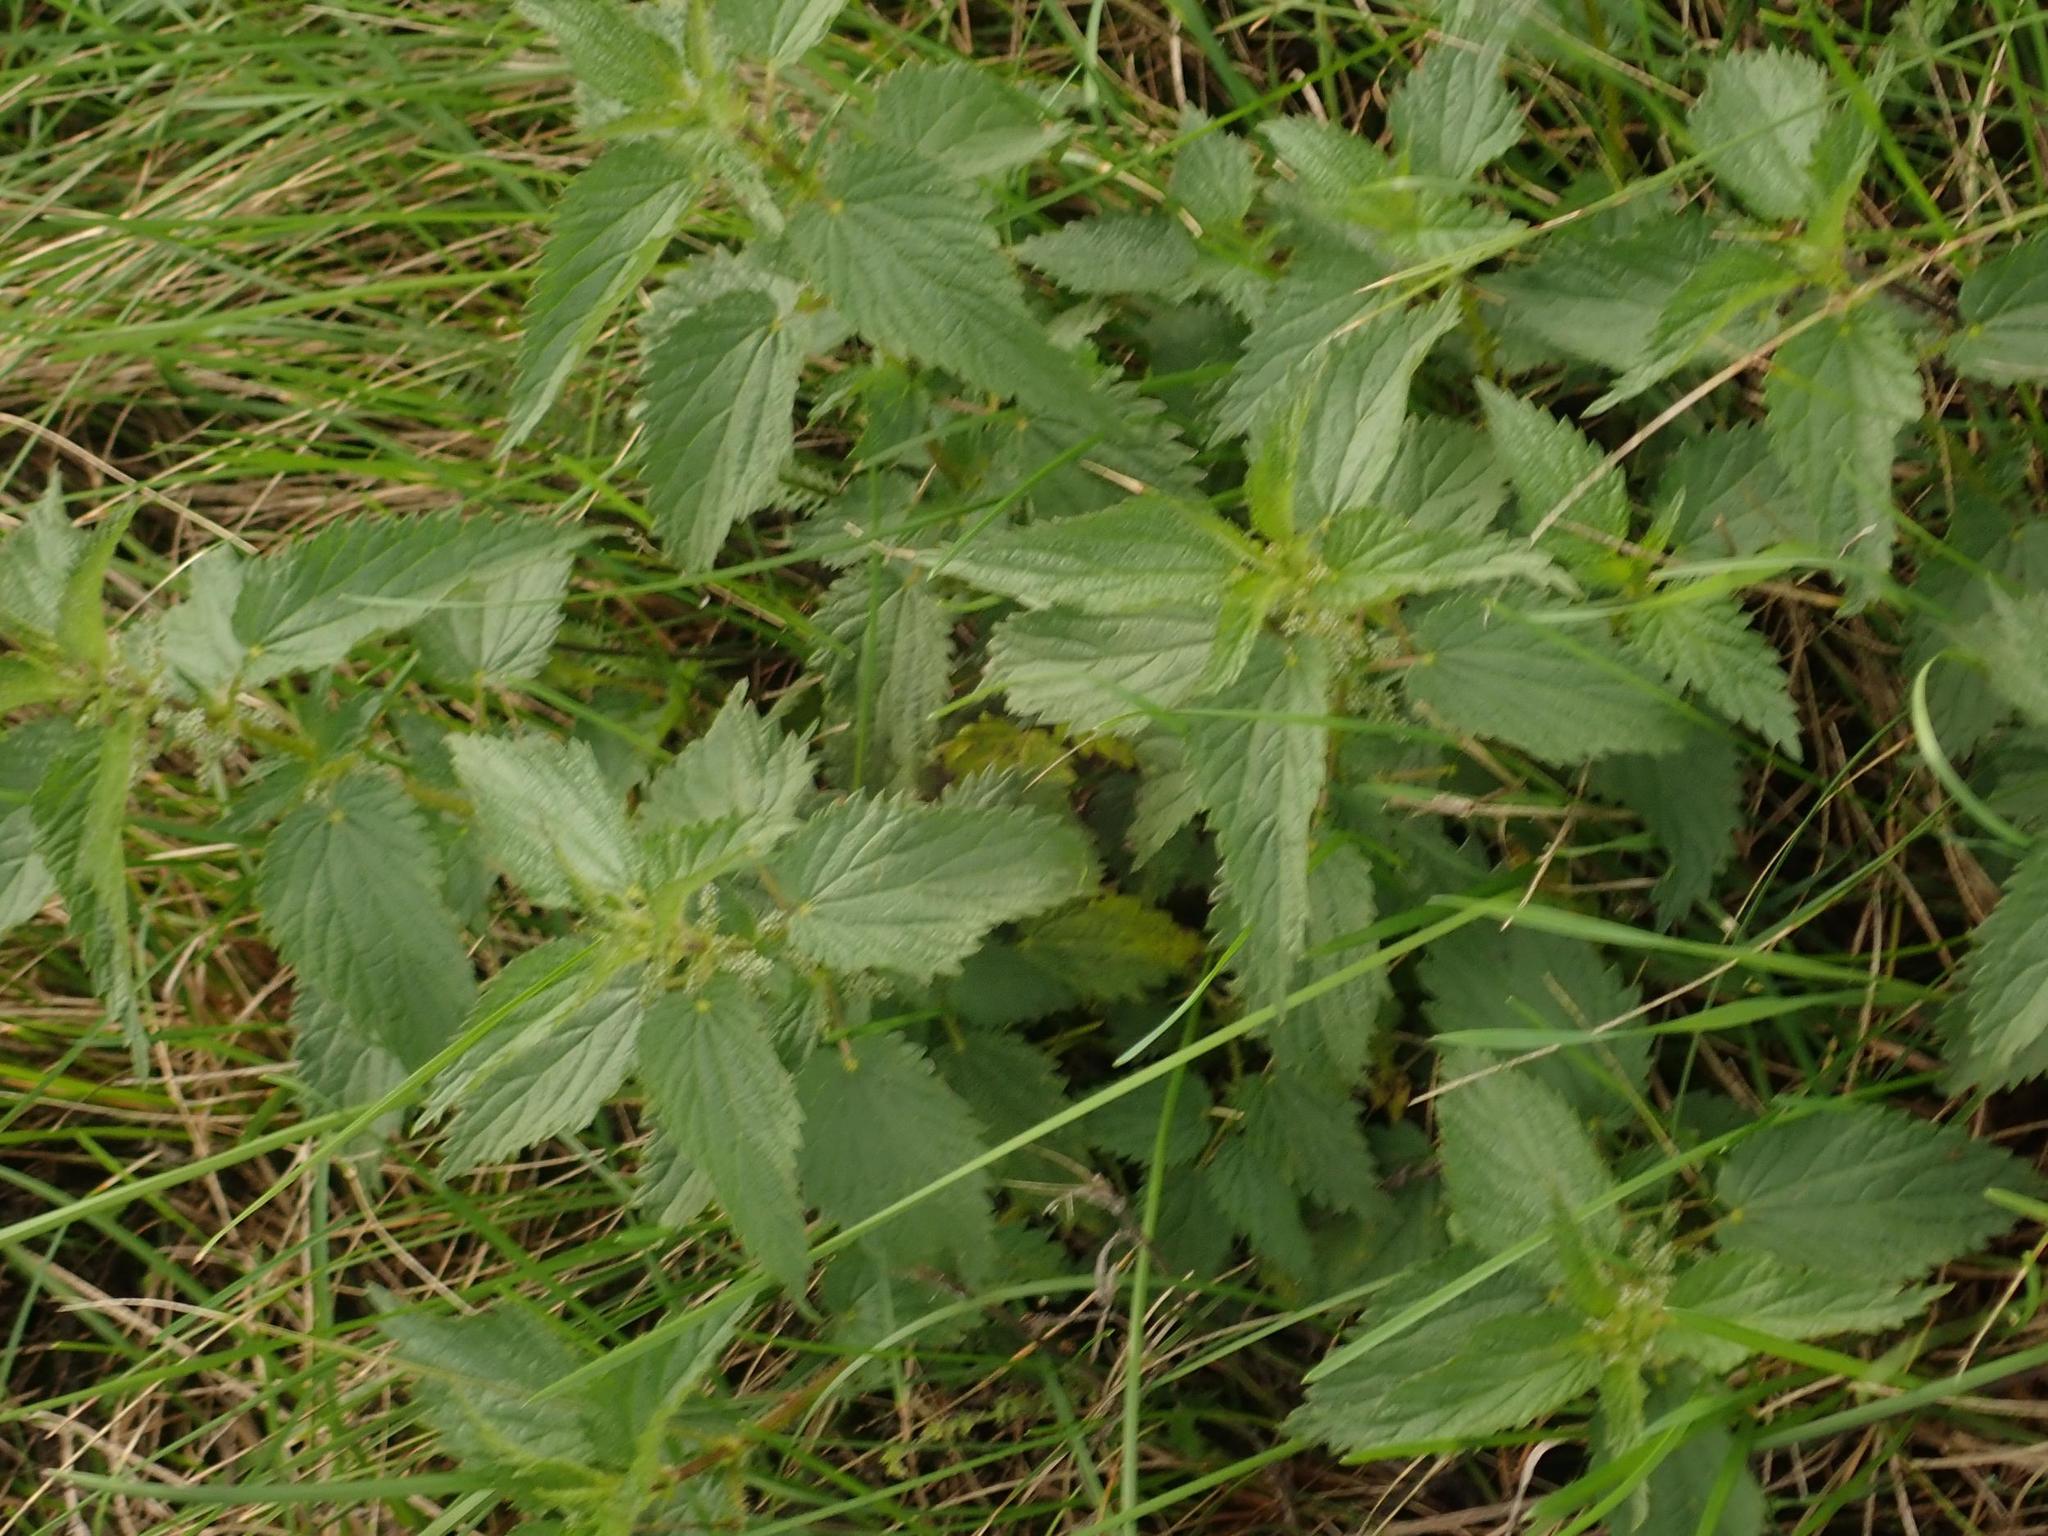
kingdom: Plantae
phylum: Tracheophyta
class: Magnoliopsida
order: Rosales
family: Urticaceae
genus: Urtica
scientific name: Urtica dioica
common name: Common nettle
